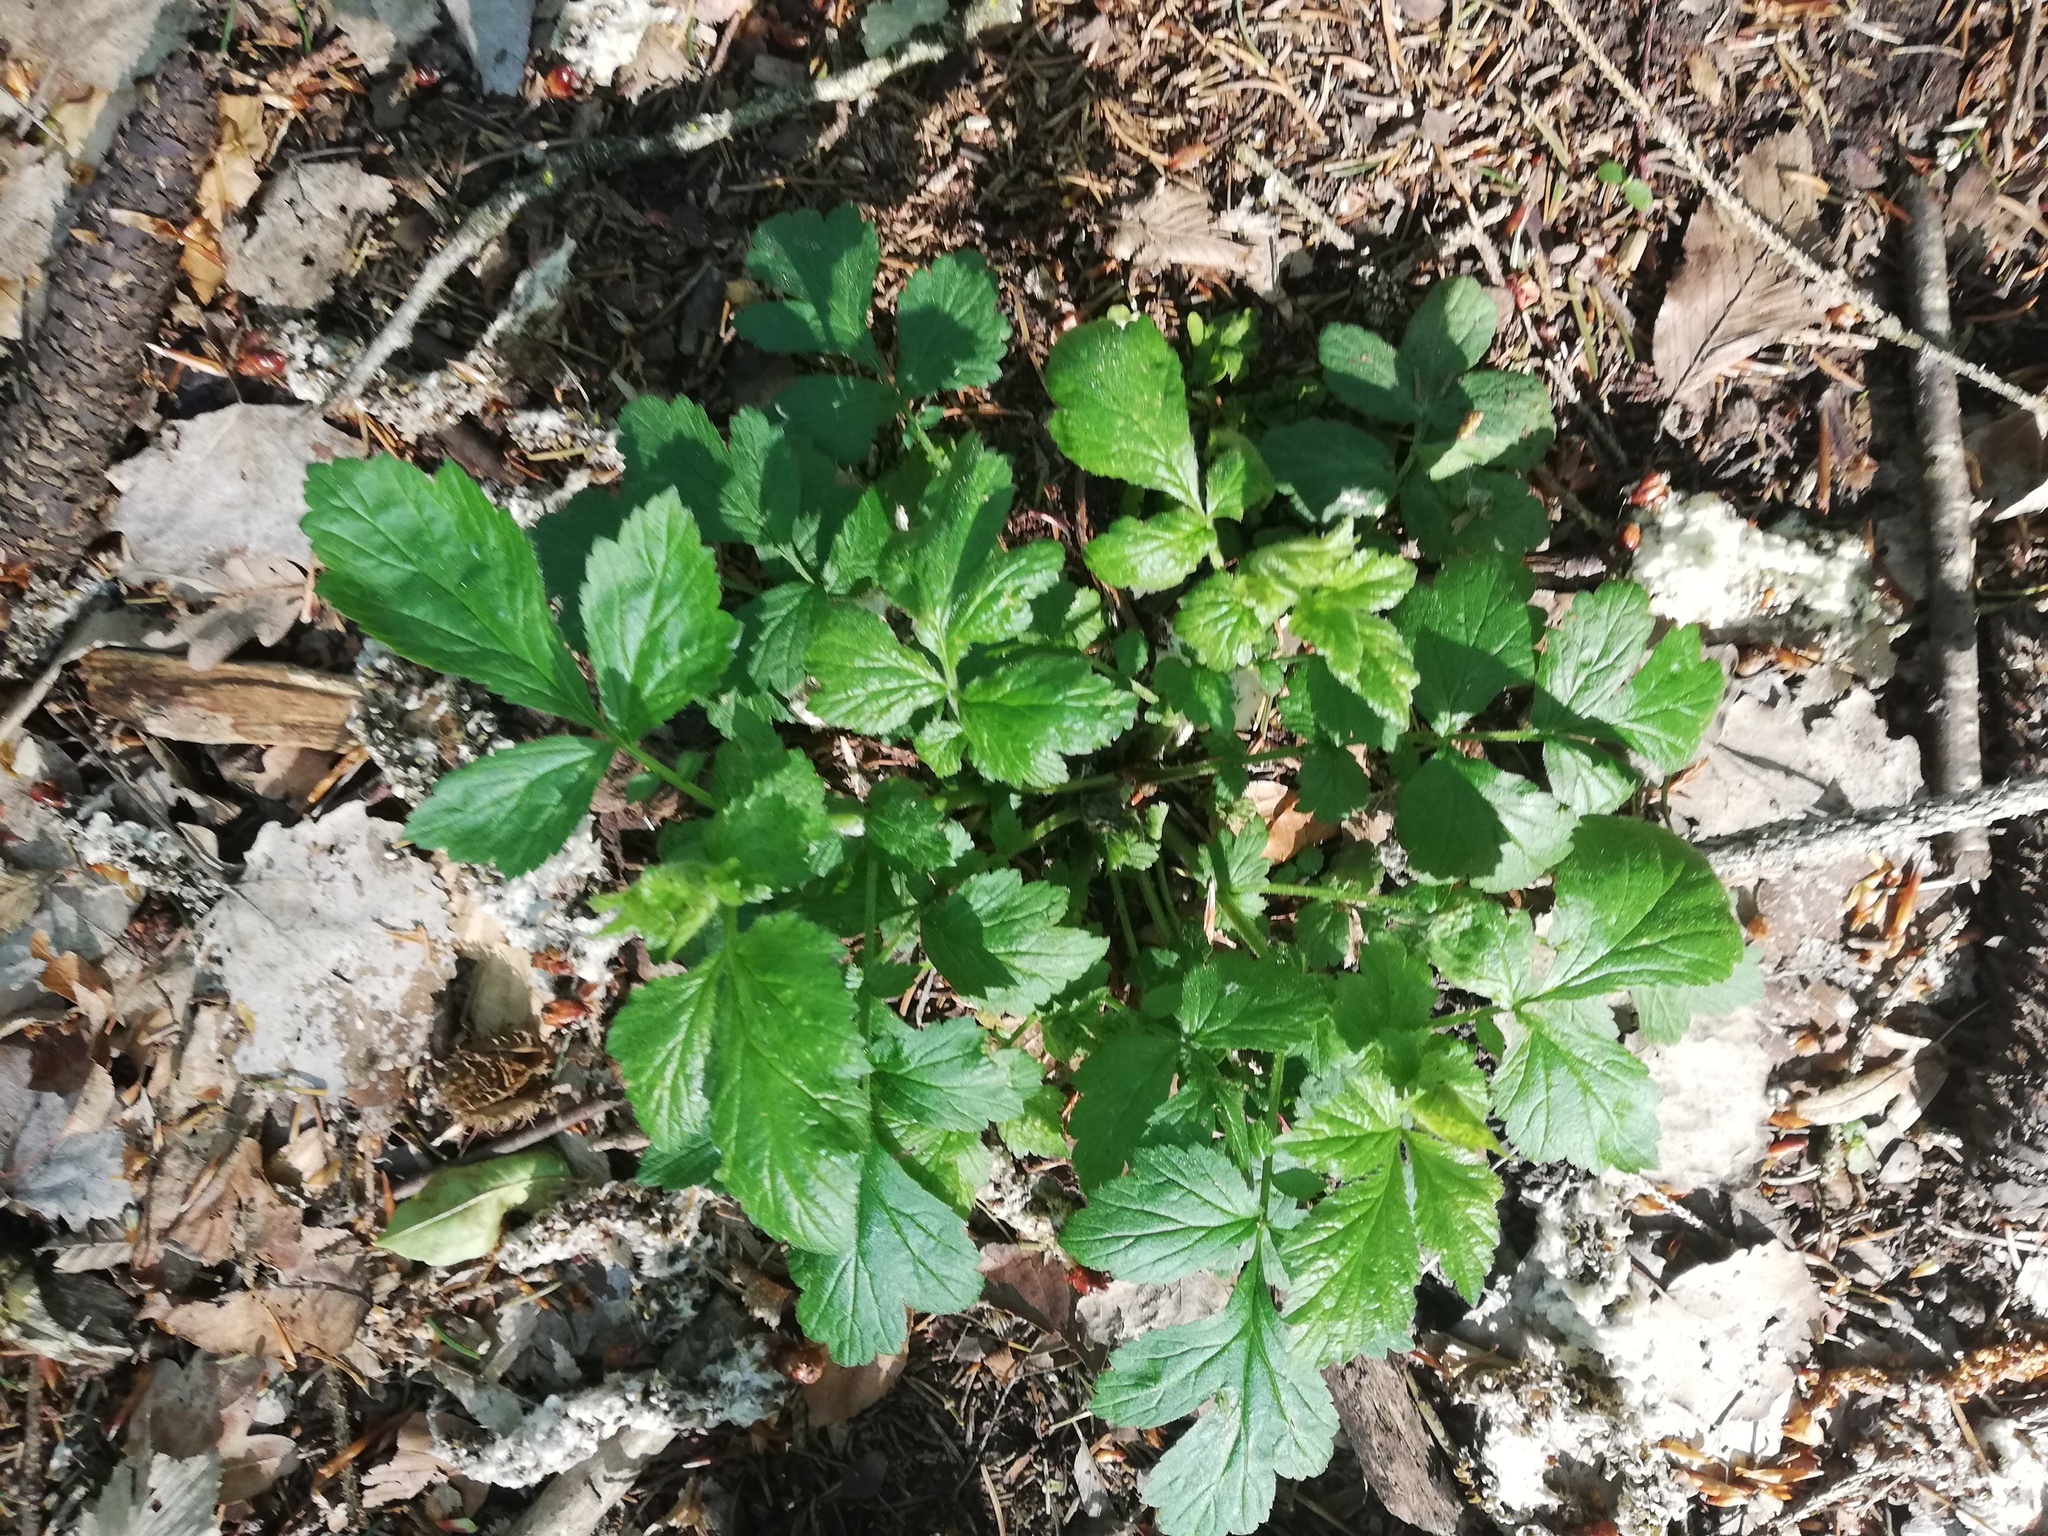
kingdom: Plantae
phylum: Tracheophyta
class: Magnoliopsida
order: Rosales
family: Rosaceae
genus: Geum
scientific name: Geum urbanum
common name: Wood avens
